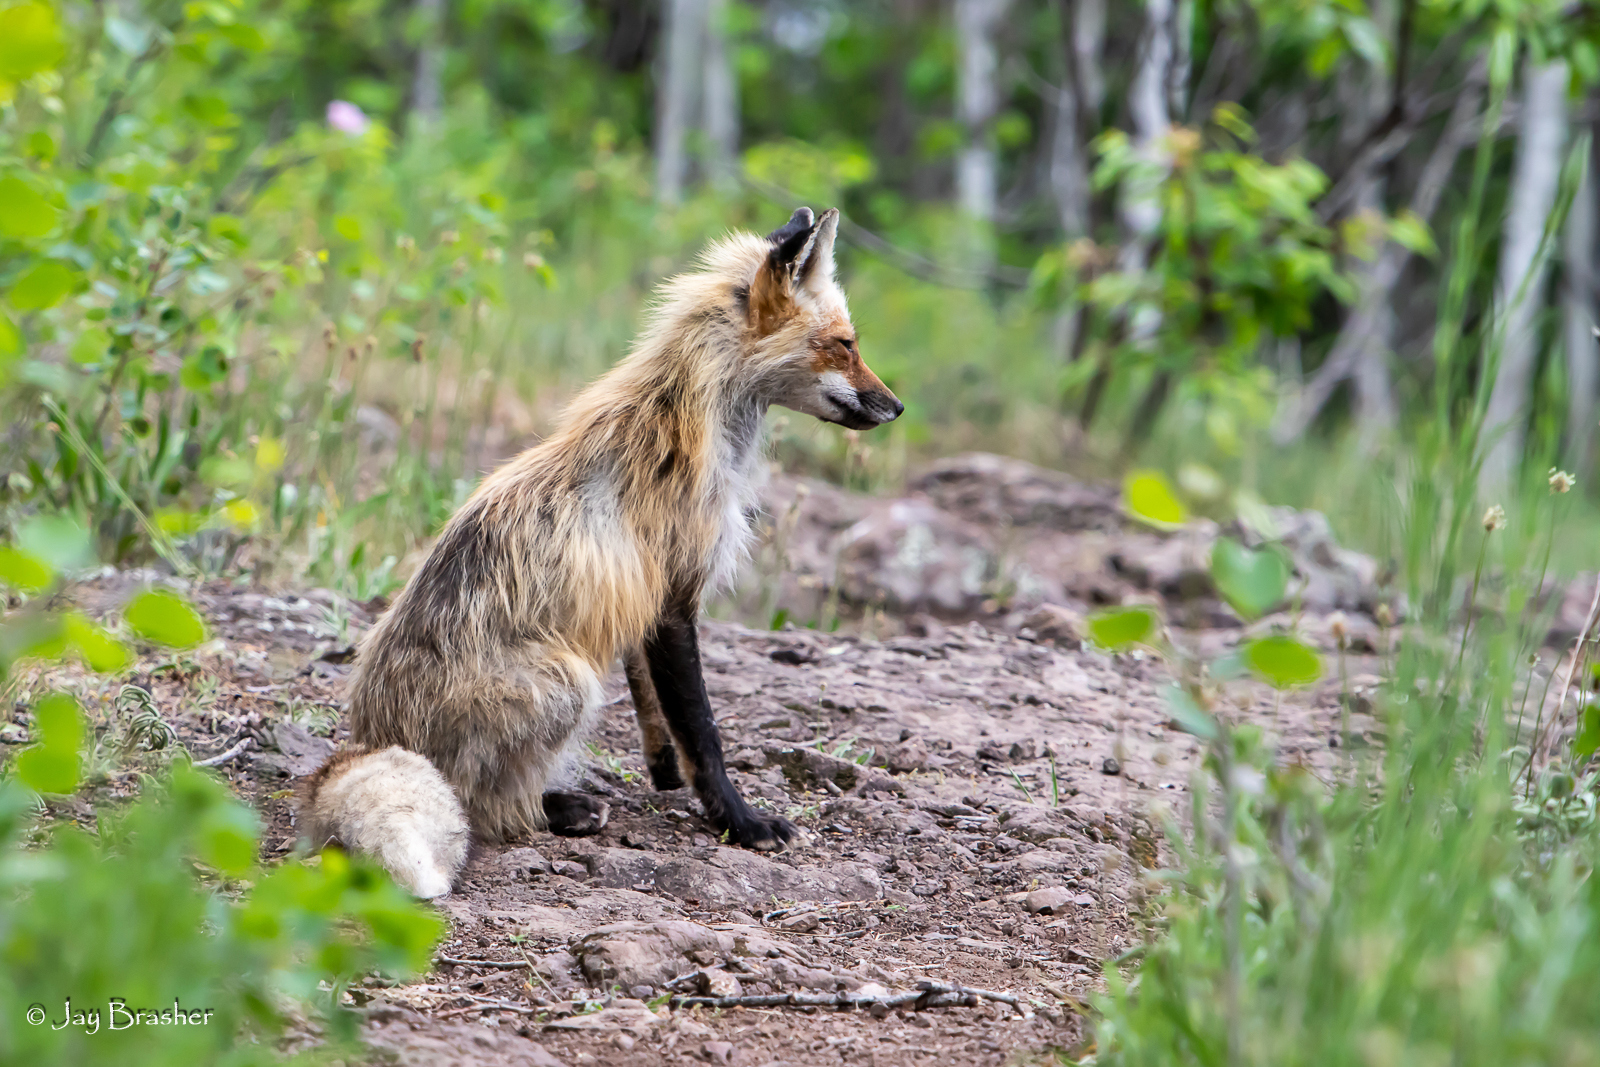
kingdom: Animalia
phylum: Chordata
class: Mammalia
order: Carnivora
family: Canidae
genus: Vulpes
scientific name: Vulpes vulpes
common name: Red fox
